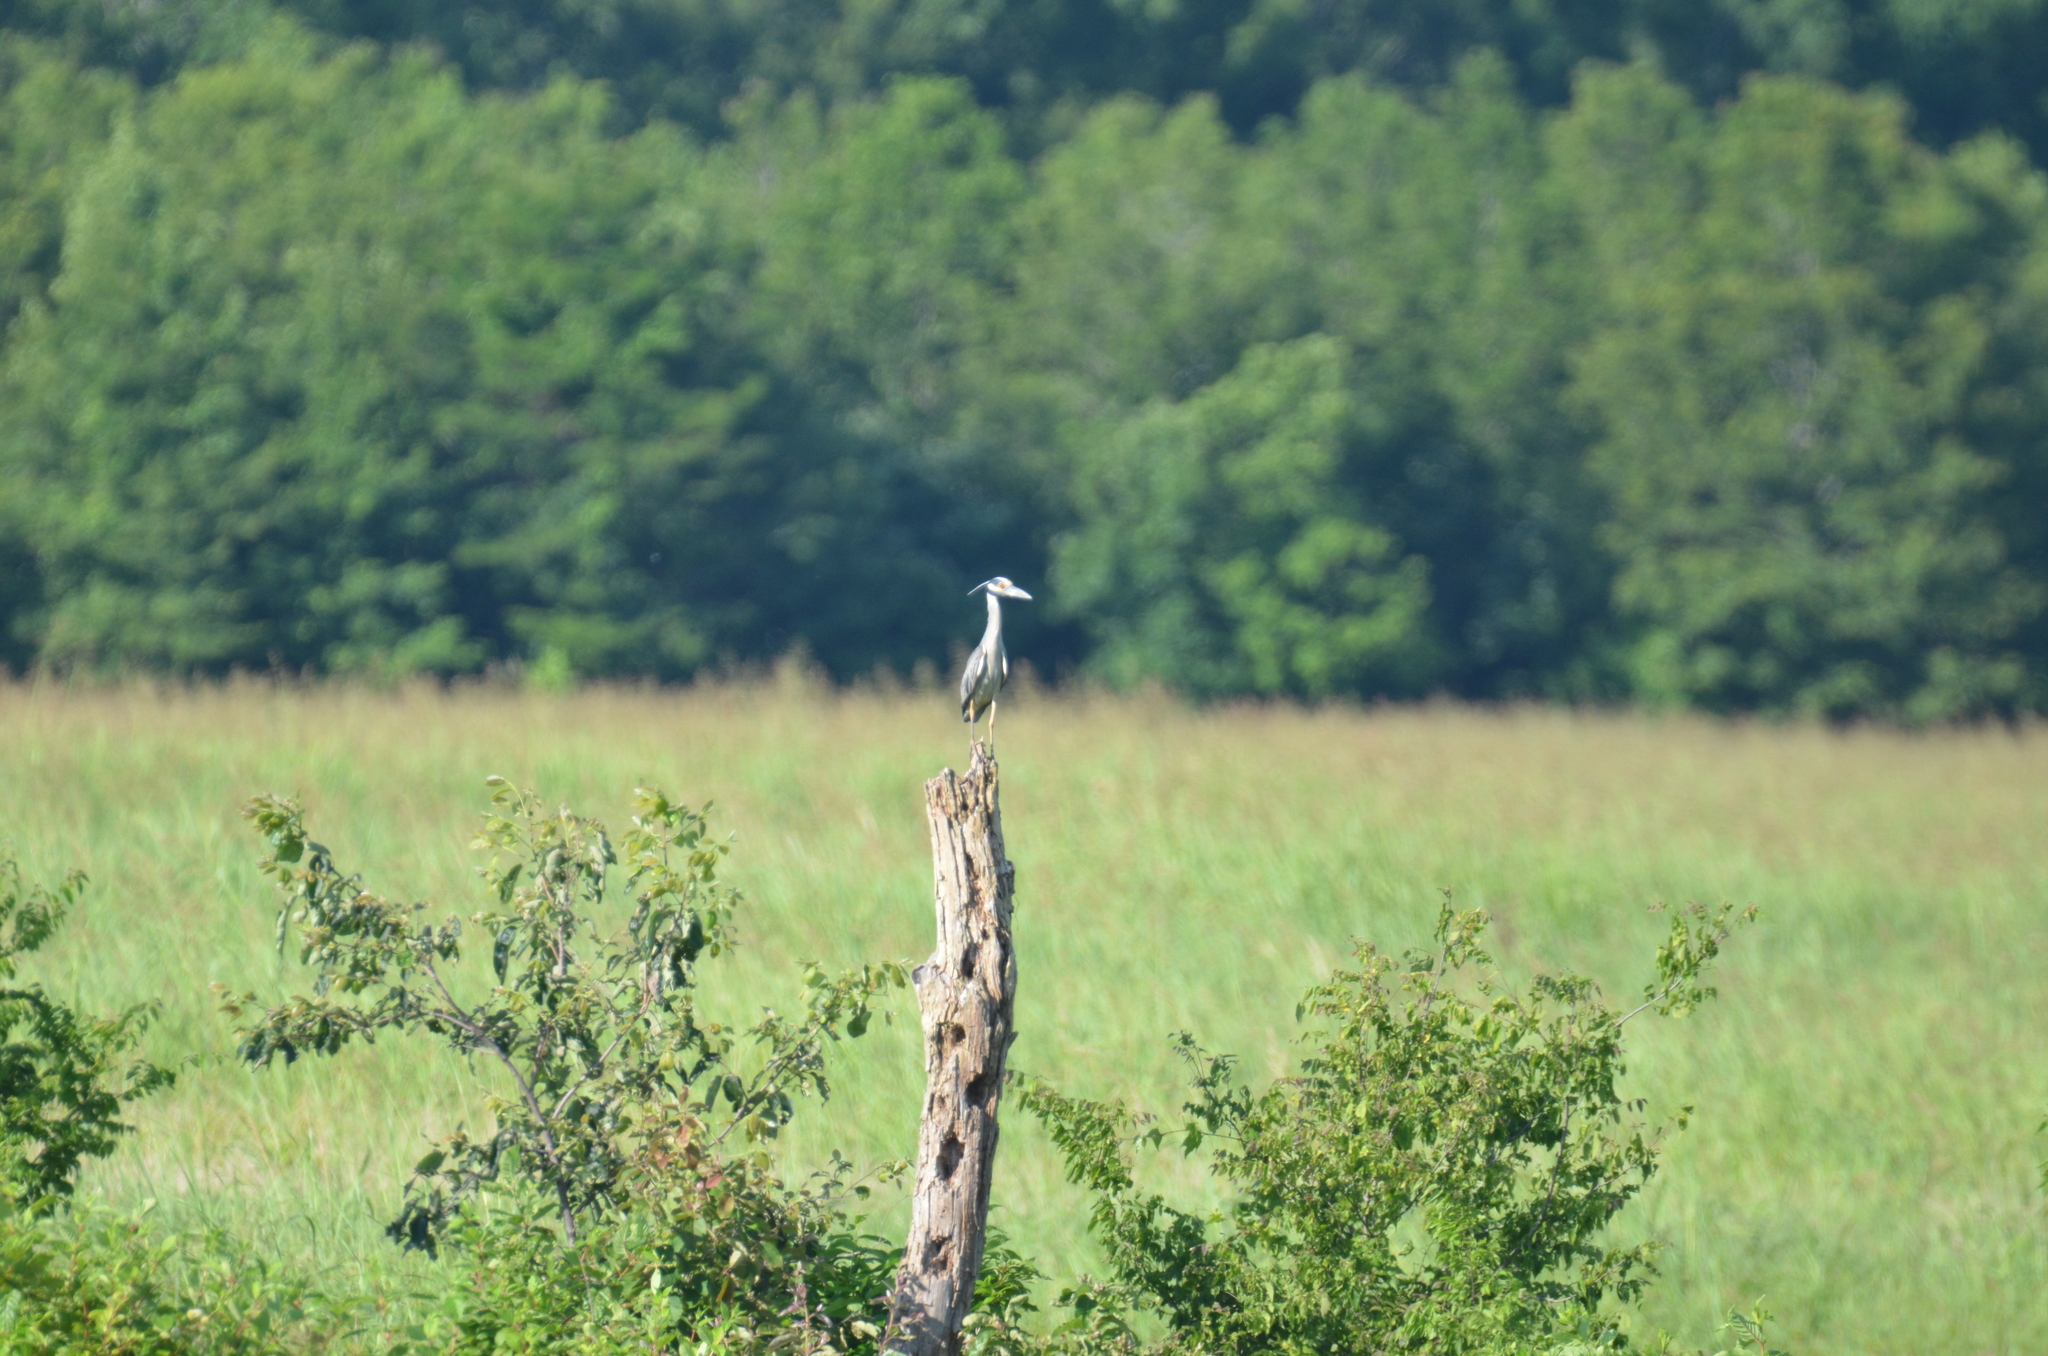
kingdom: Animalia
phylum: Chordata
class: Aves
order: Pelecaniformes
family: Ardeidae
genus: Nyctanassa
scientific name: Nyctanassa violacea
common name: Yellow-crowned night heron
